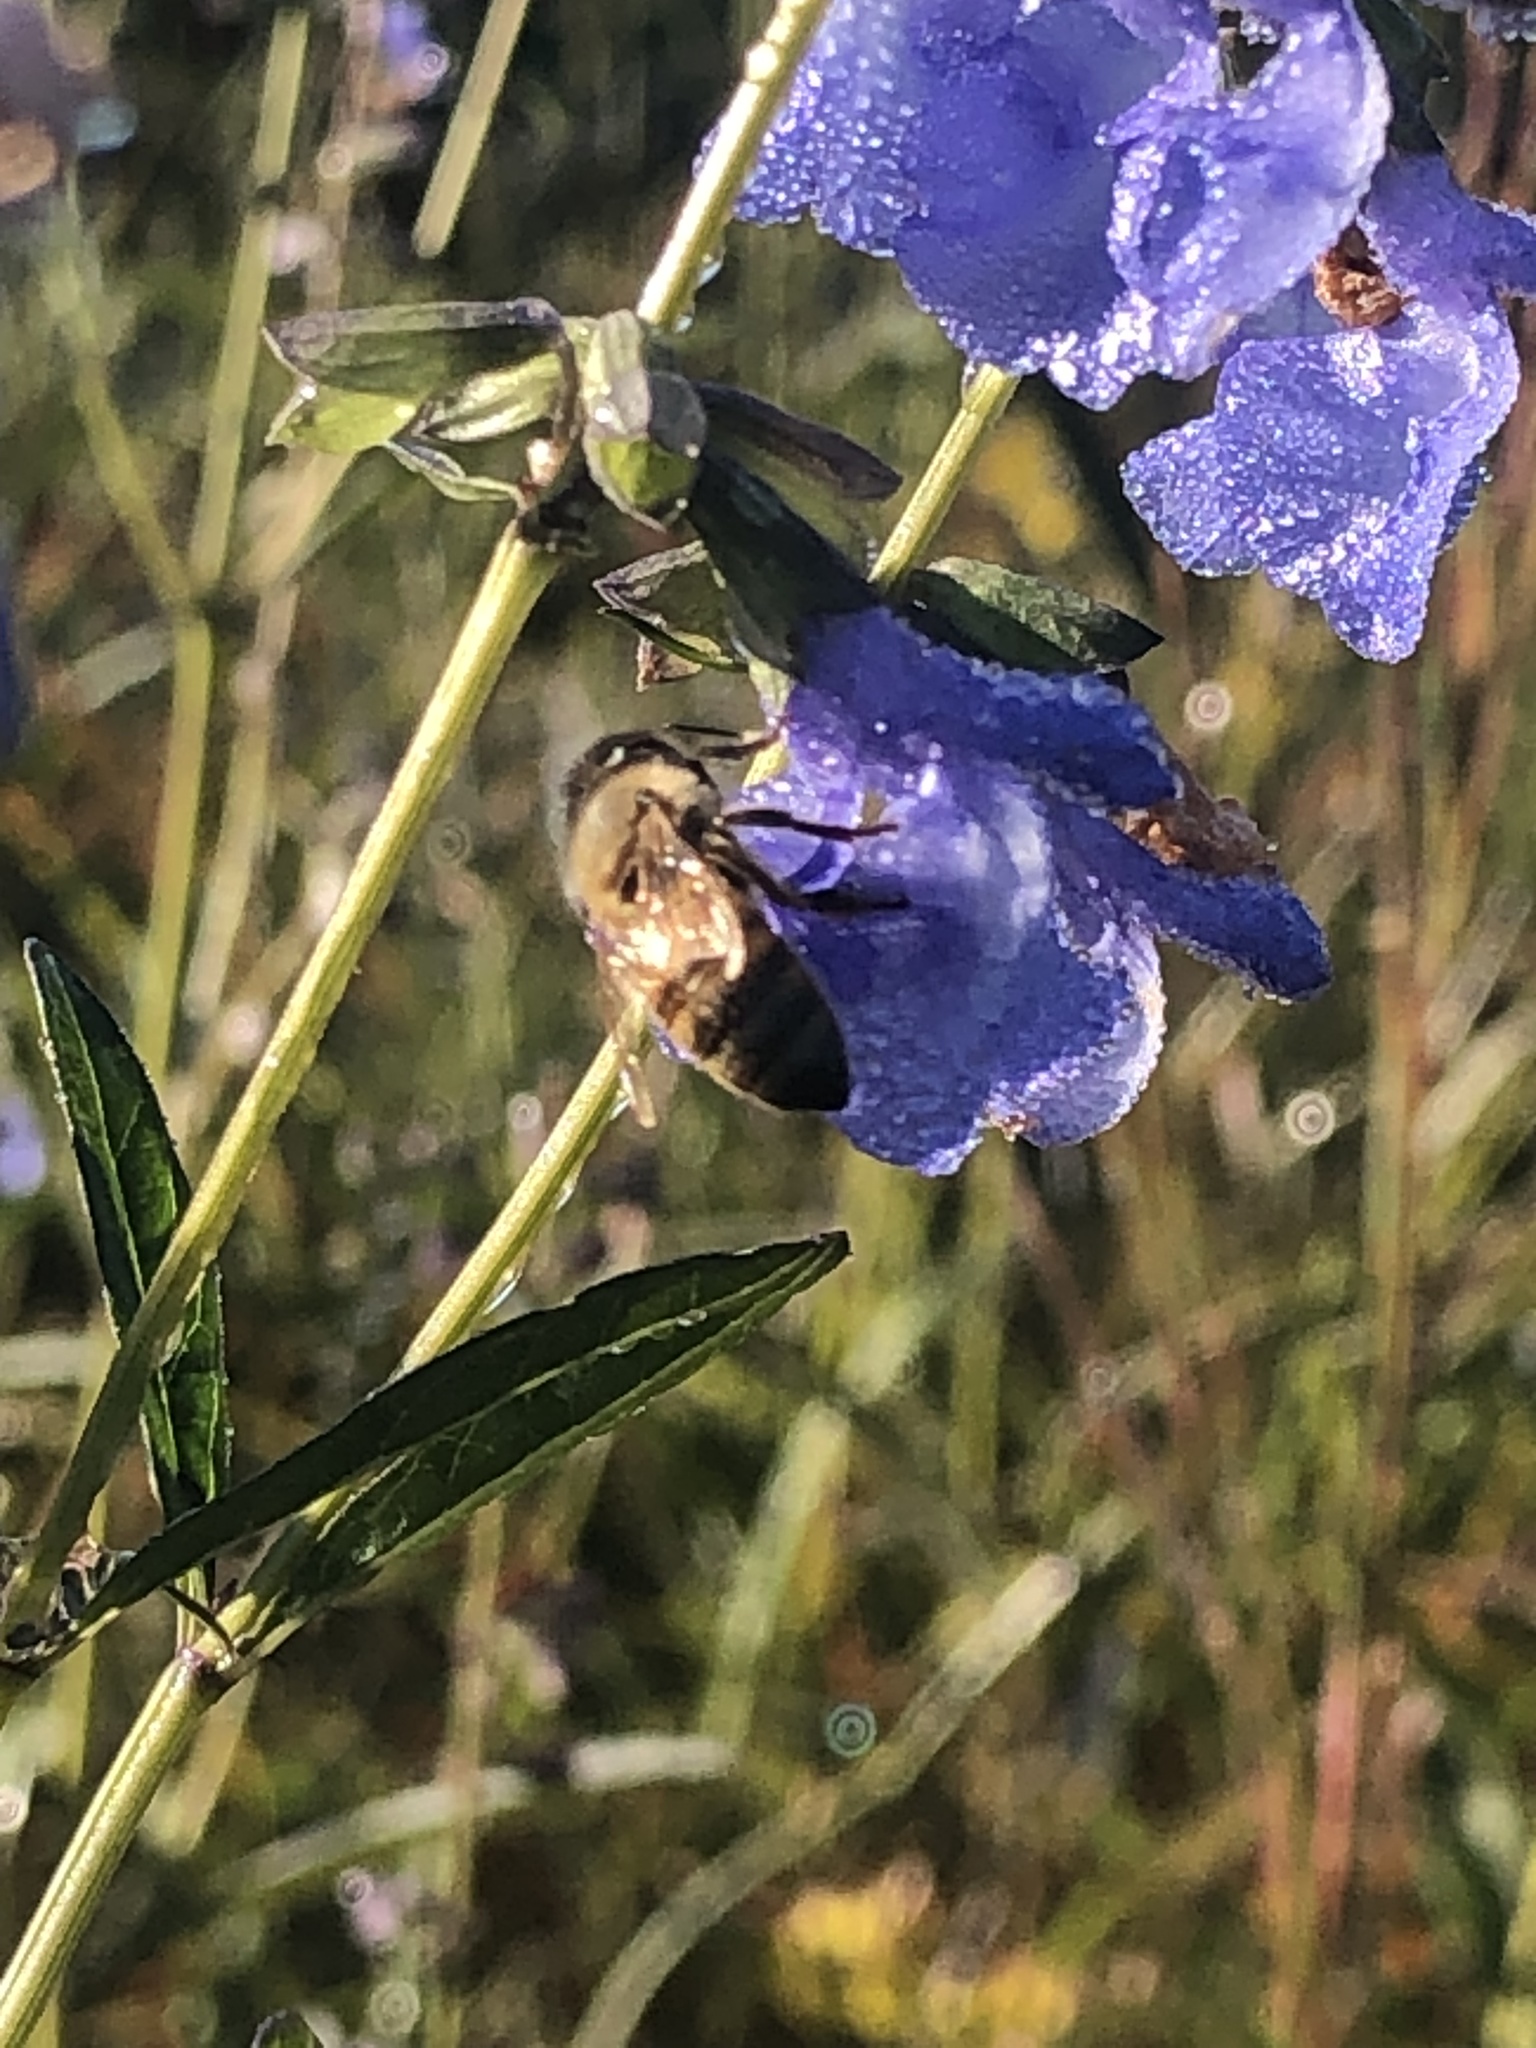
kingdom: Animalia
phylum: Arthropoda
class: Insecta
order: Hymenoptera
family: Apidae
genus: Apis
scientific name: Apis mellifera
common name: Honey bee
